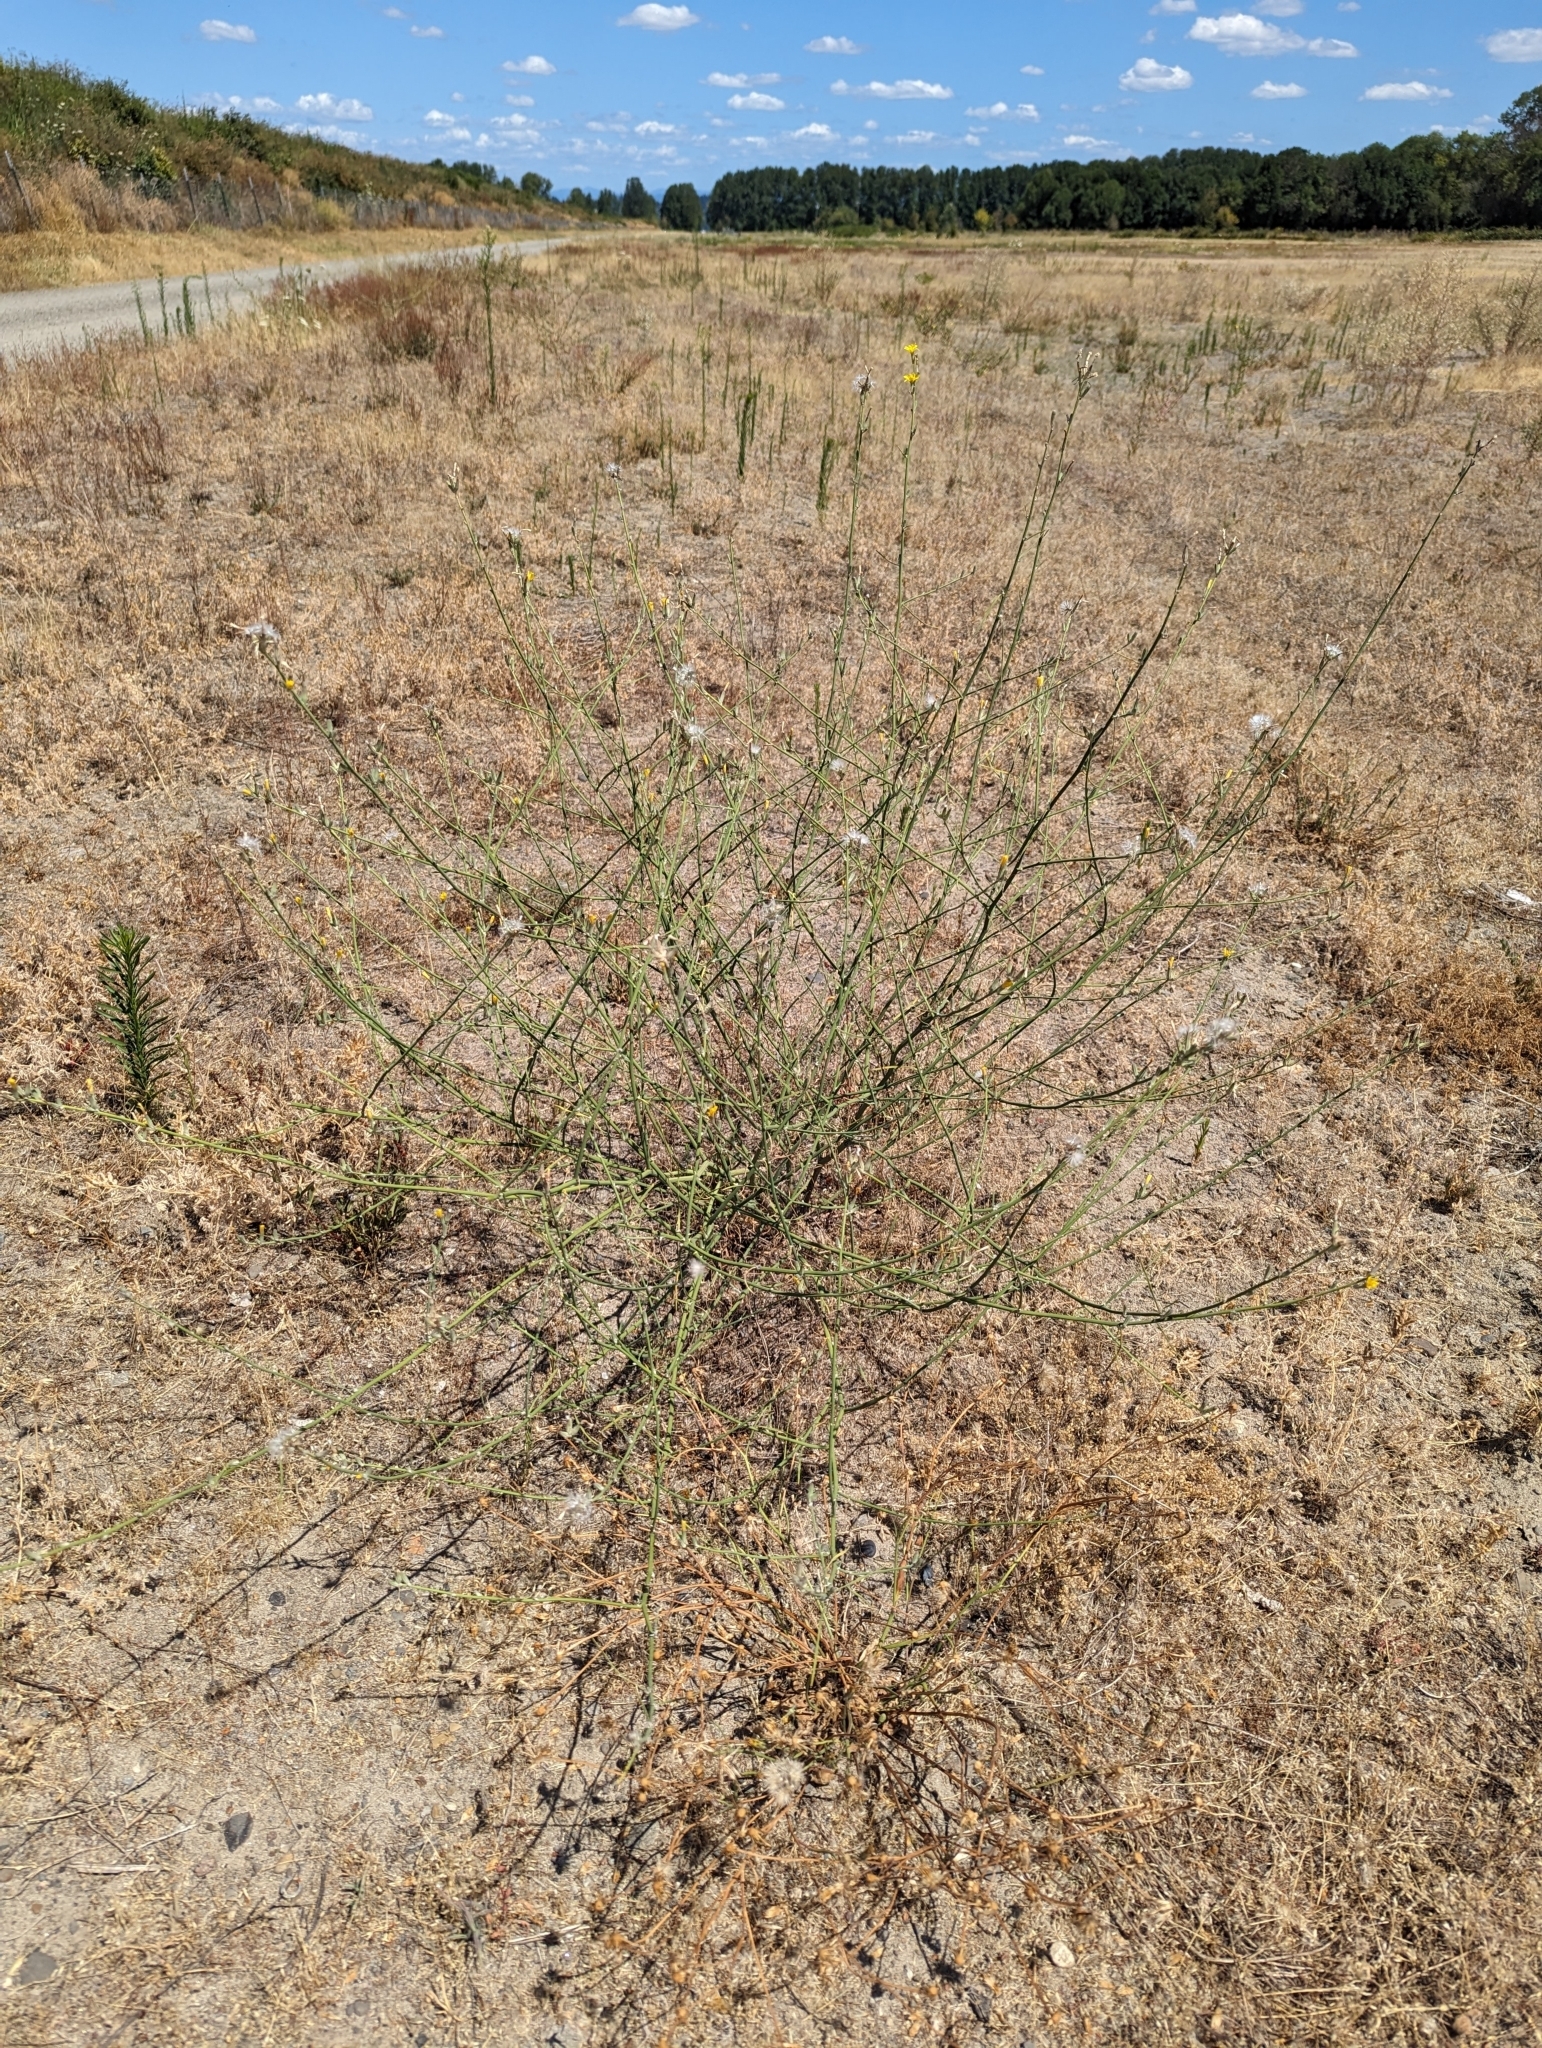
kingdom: Plantae
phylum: Tracheophyta
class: Magnoliopsida
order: Asterales
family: Asteraceae
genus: Chondrilla
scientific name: Chondrilla juncea
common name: Skeleton weed
